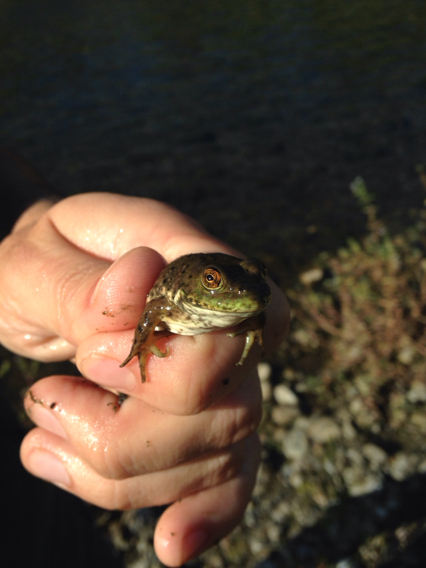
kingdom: Animalia
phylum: Chordata
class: Amphibia
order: Anura
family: Ranidae
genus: Lithobates
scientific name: Lithobates catesbeianus
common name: American bullfrog
